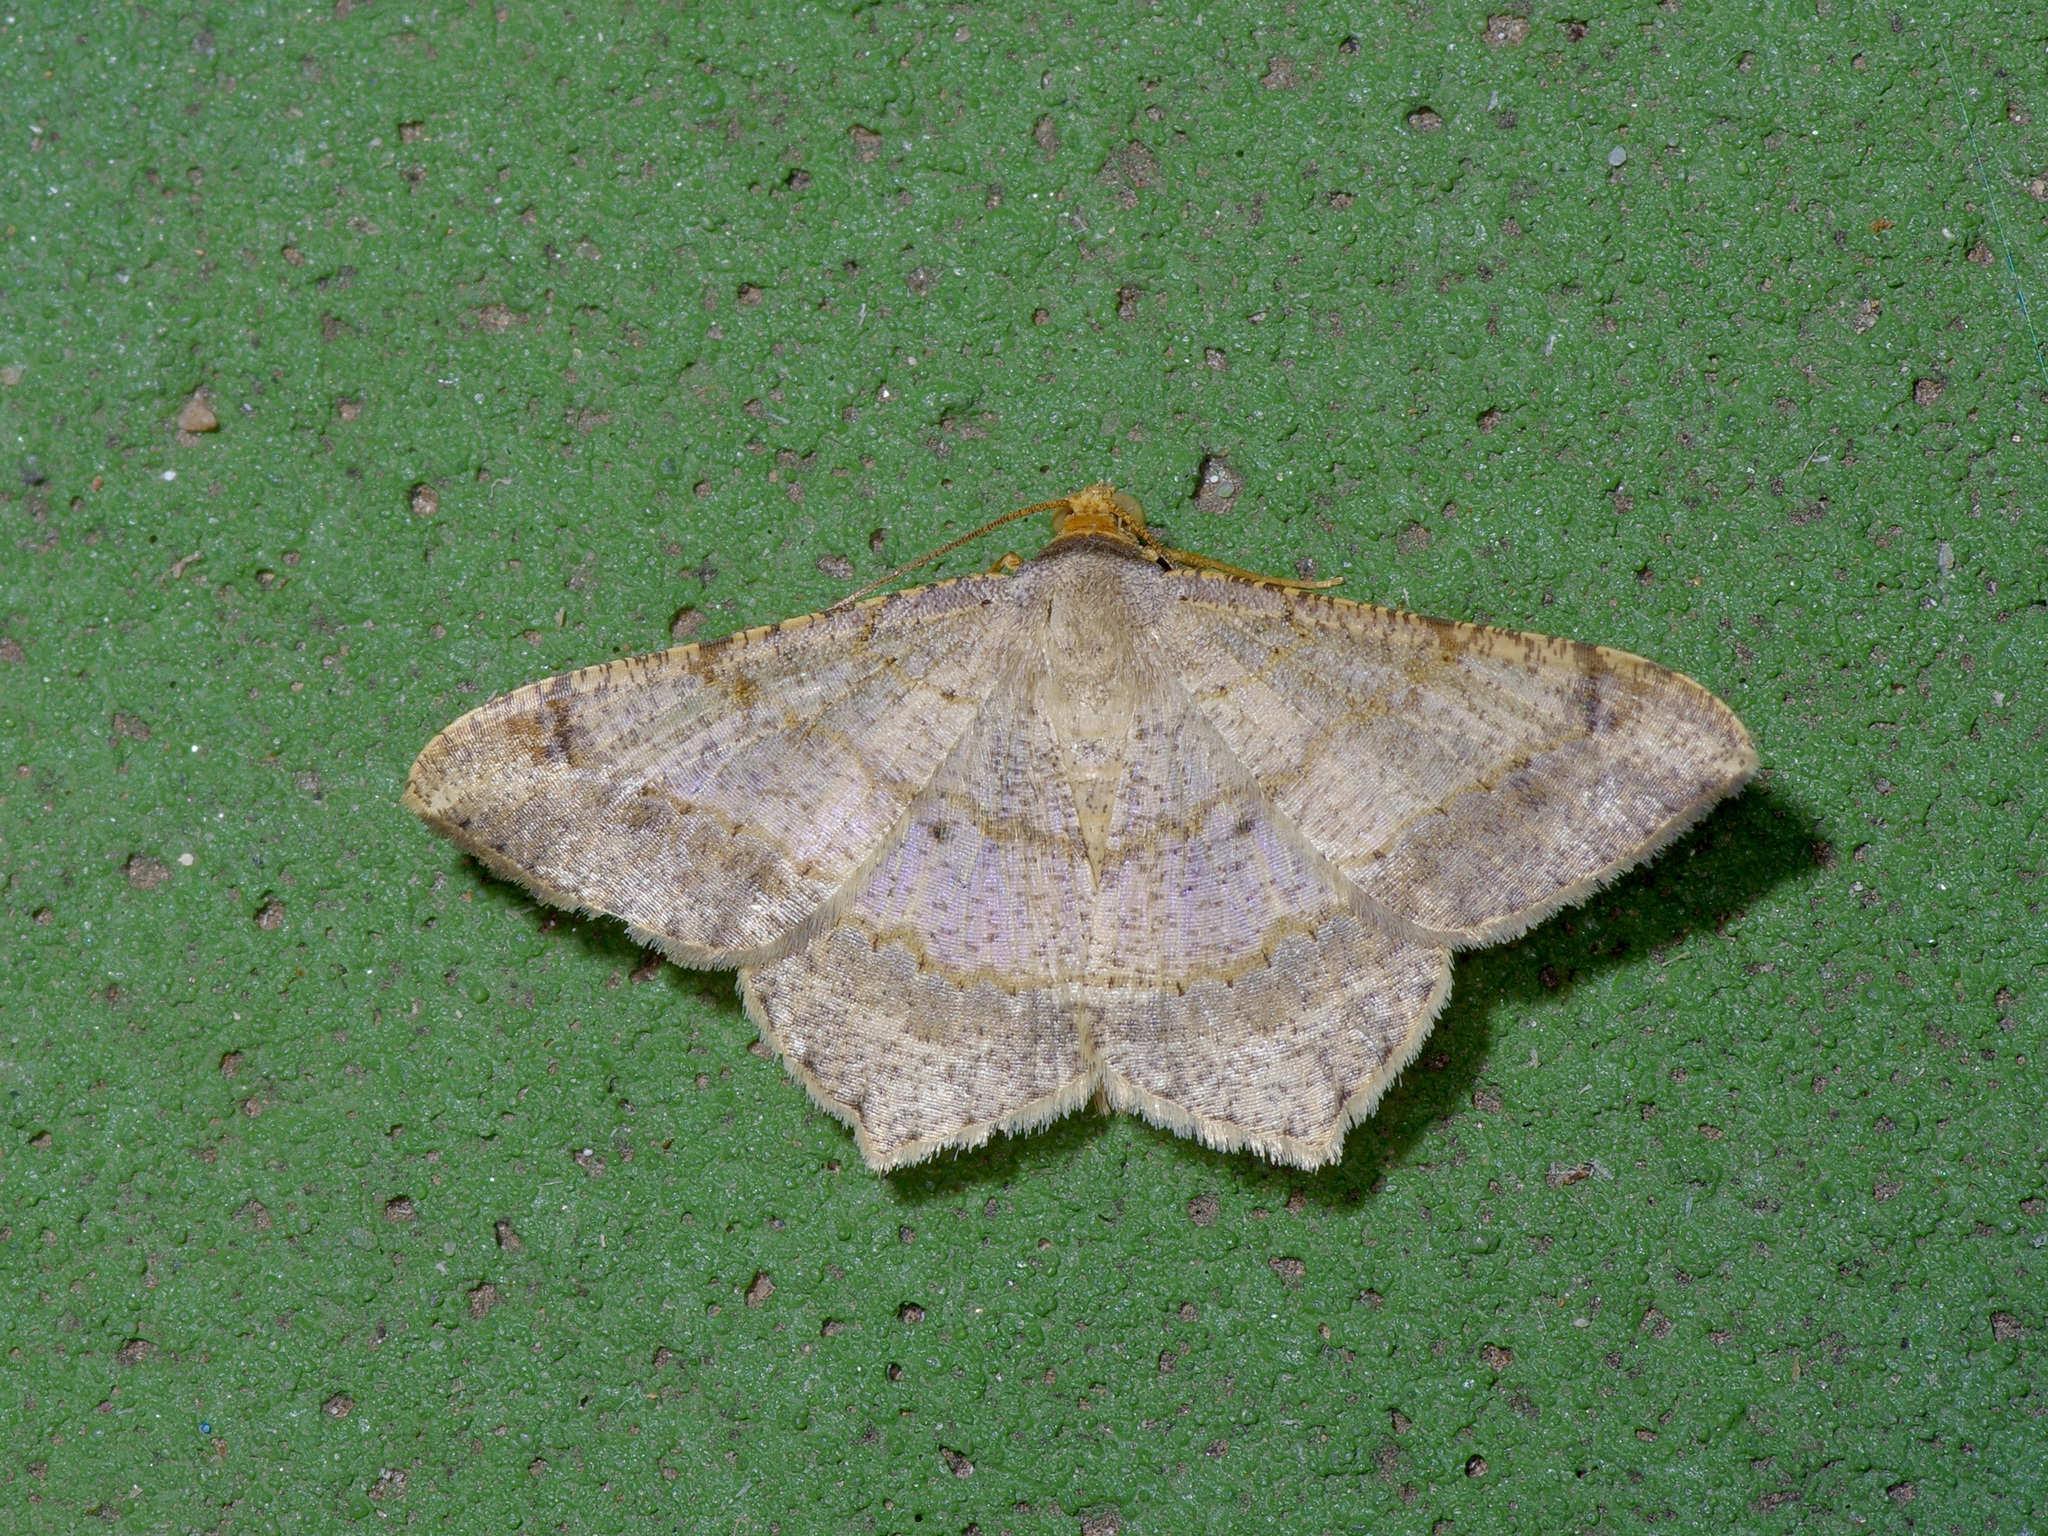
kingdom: Animalia
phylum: Arthropoda
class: Insecta
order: Lepidoptera
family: Geometridae
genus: Macaria
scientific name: Macaria abydata
